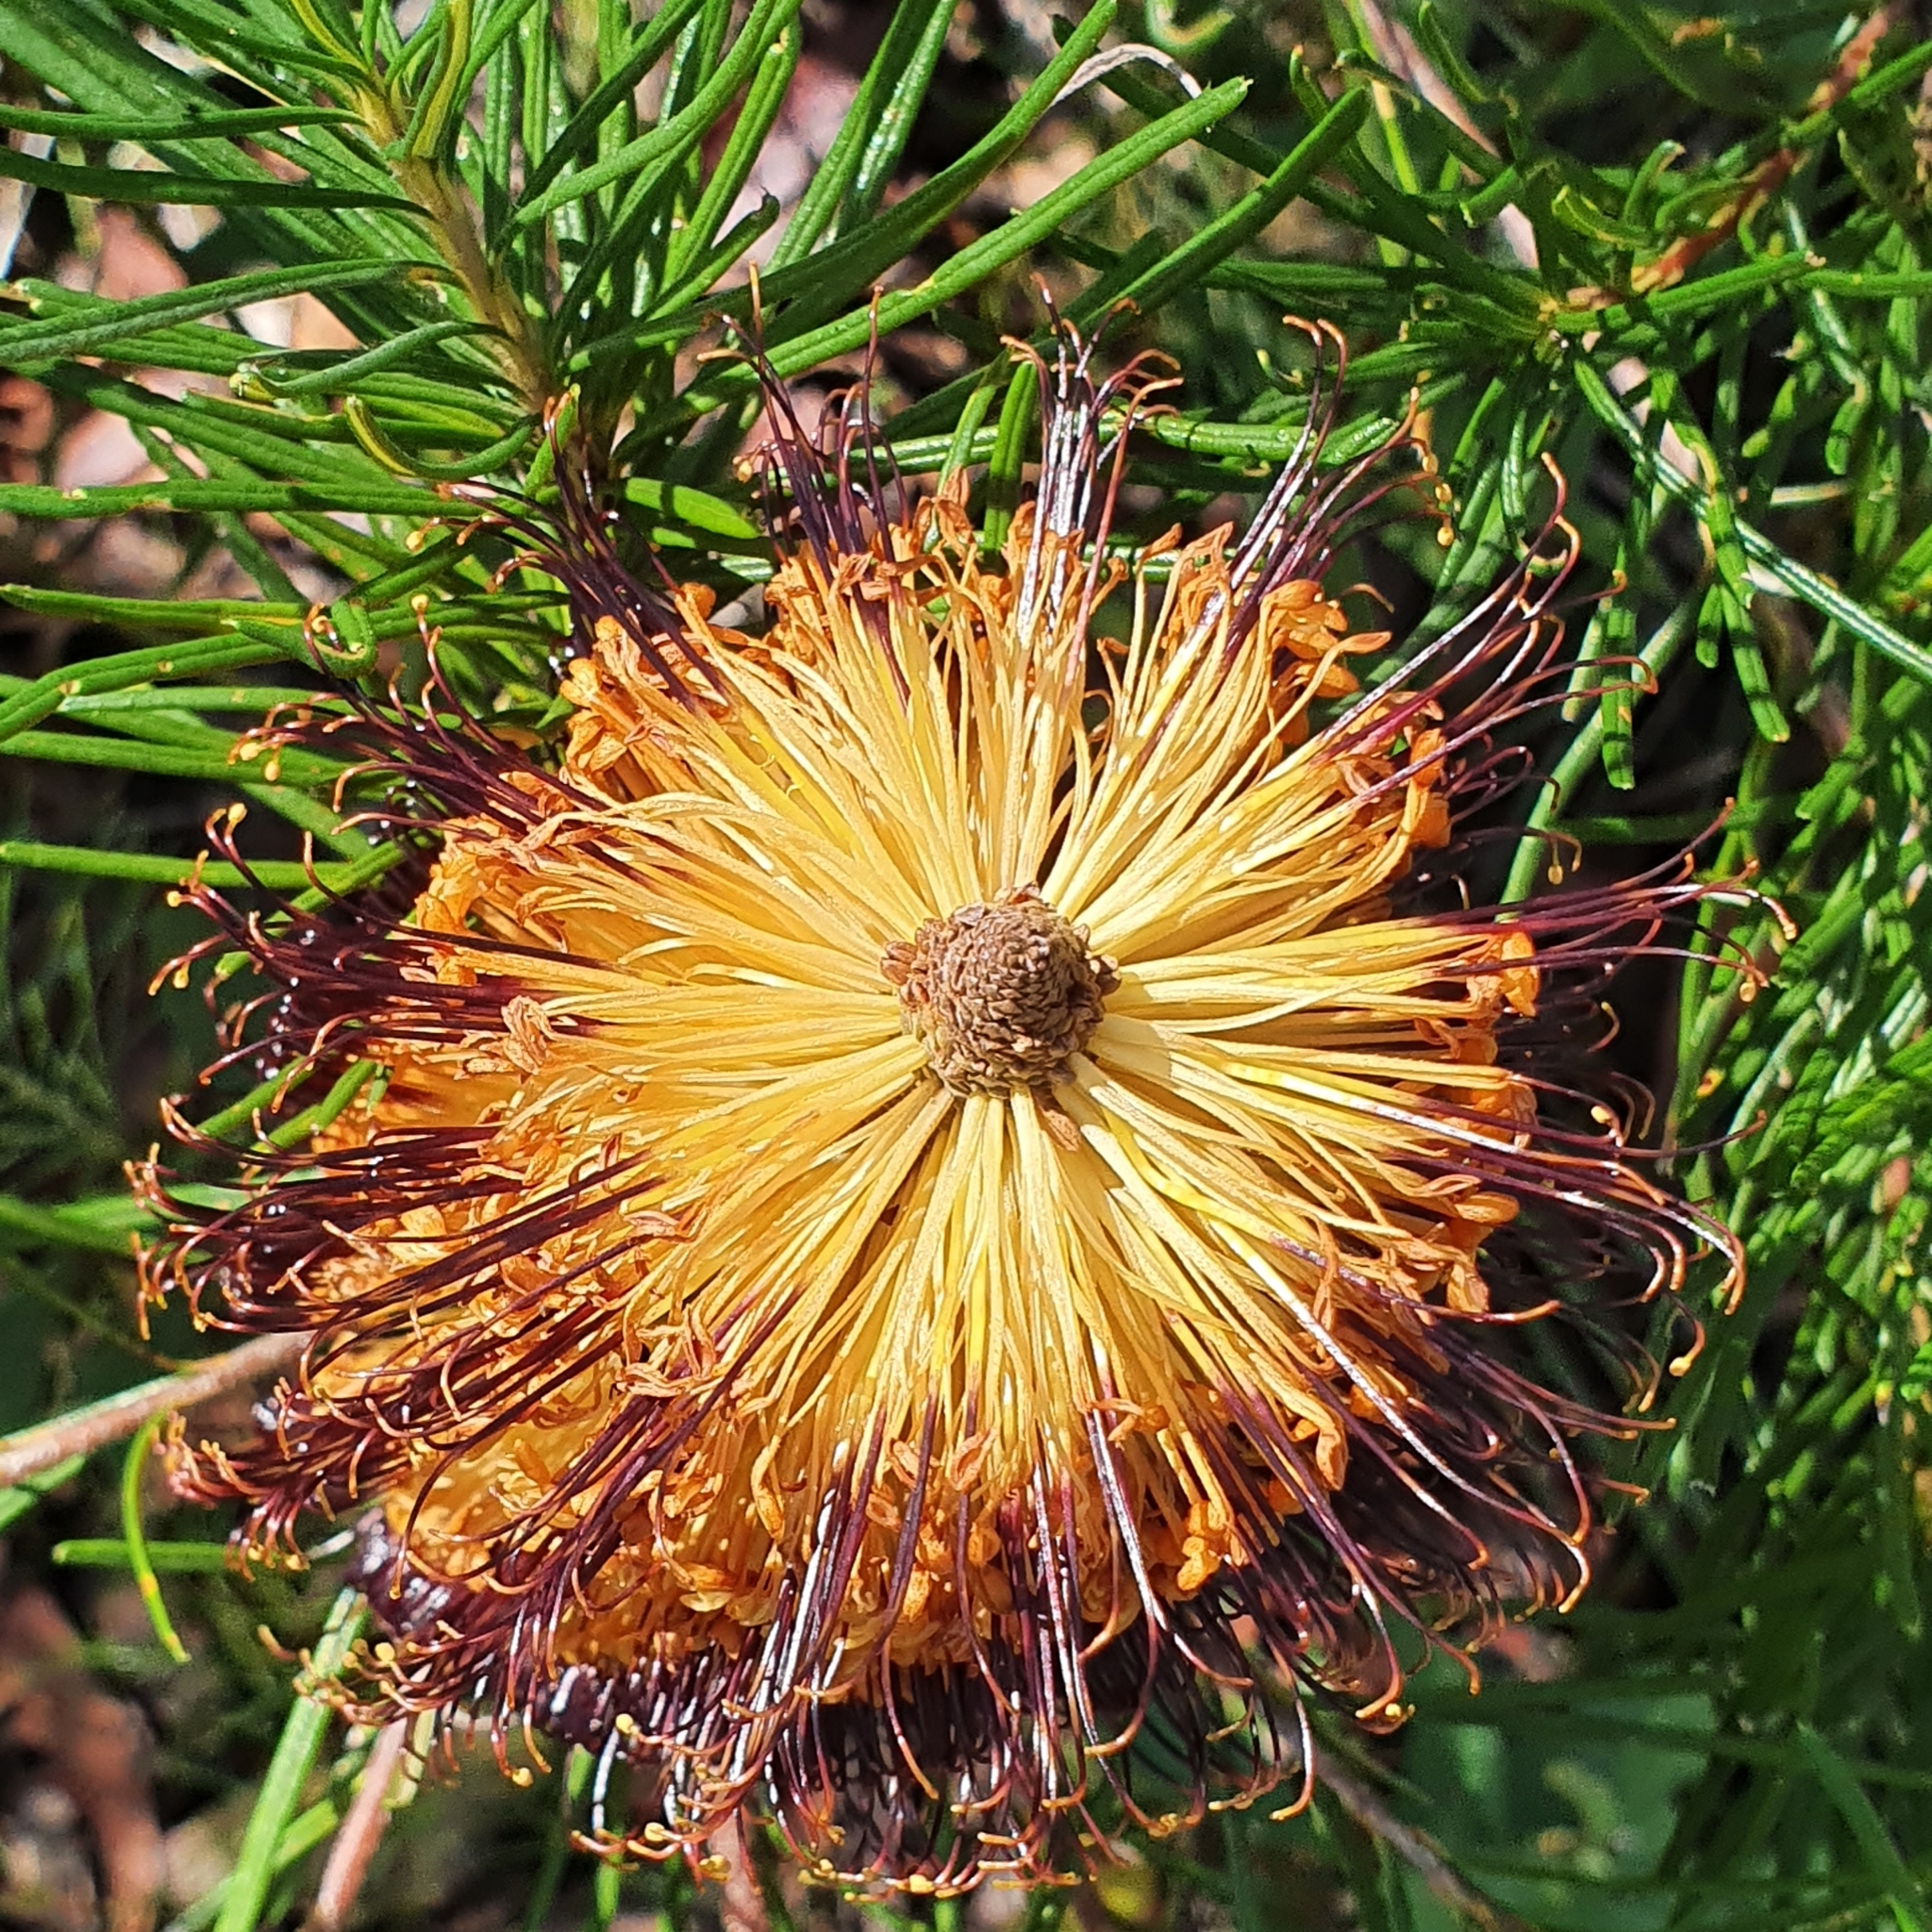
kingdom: Plantae
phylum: Tracheophyta
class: Magnoliopsida
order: Proteales
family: Proteaceae
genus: Banksia
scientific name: Banksia spinulosa
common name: Hairpin banksia
